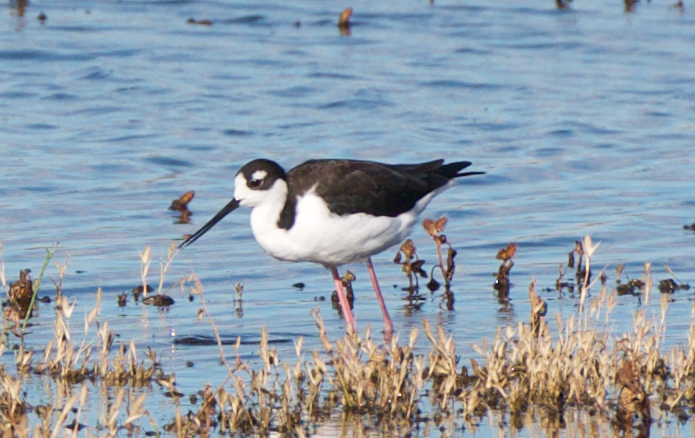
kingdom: Animalia
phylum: Chordata
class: Aves
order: Charadriiformes
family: Recurvirostridae
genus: Himantopus
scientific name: Himantopus mexicanus
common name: Black-necked stilt
